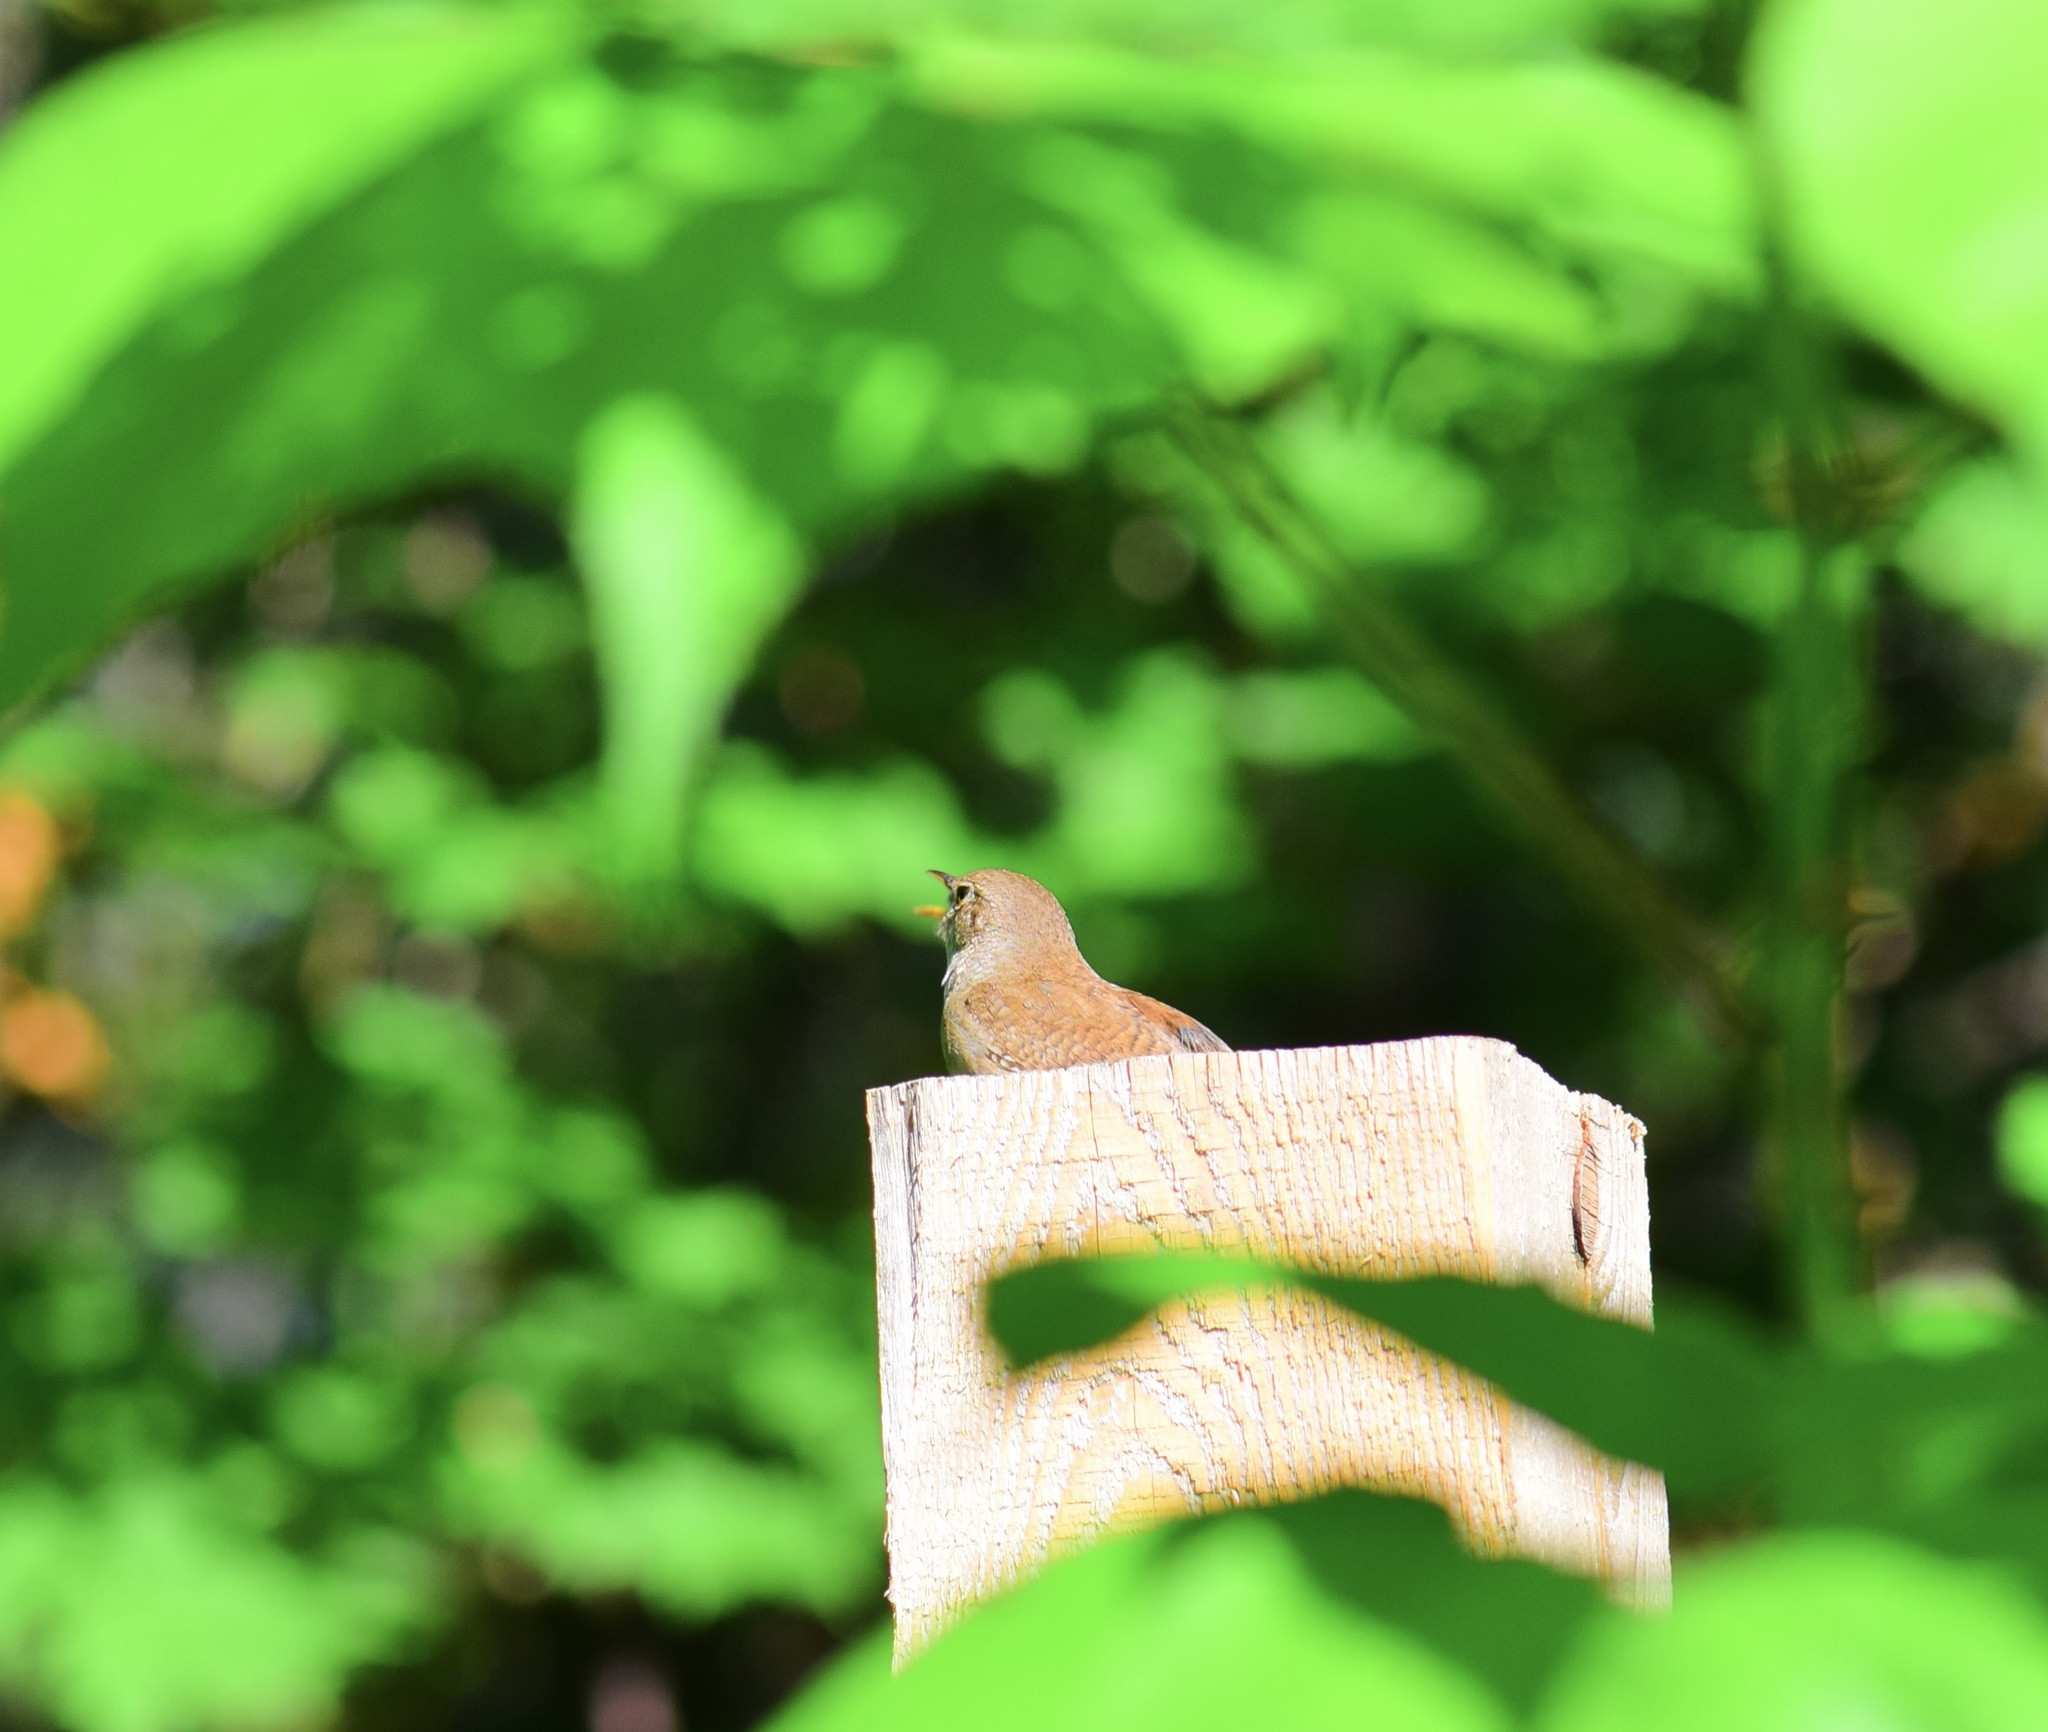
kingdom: Animalia
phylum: Chordata
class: Aves
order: Passeriformes
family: Troglodytidae
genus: Troglodytes
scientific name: Troglodytes aedon
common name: House wren
